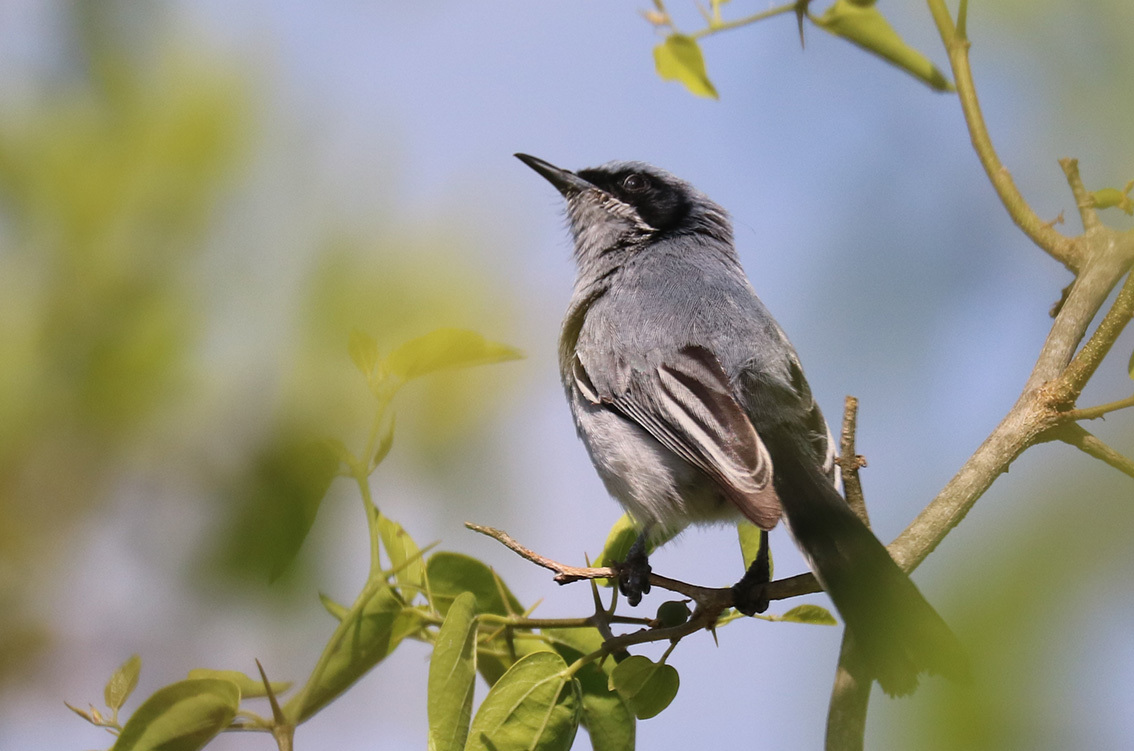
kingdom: Animalia
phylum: Chordata
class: Aves
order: Passeriformes
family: Polioptilidae
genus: Polioptila
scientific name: Polioptila dumicola
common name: Masked gnatcatcher
